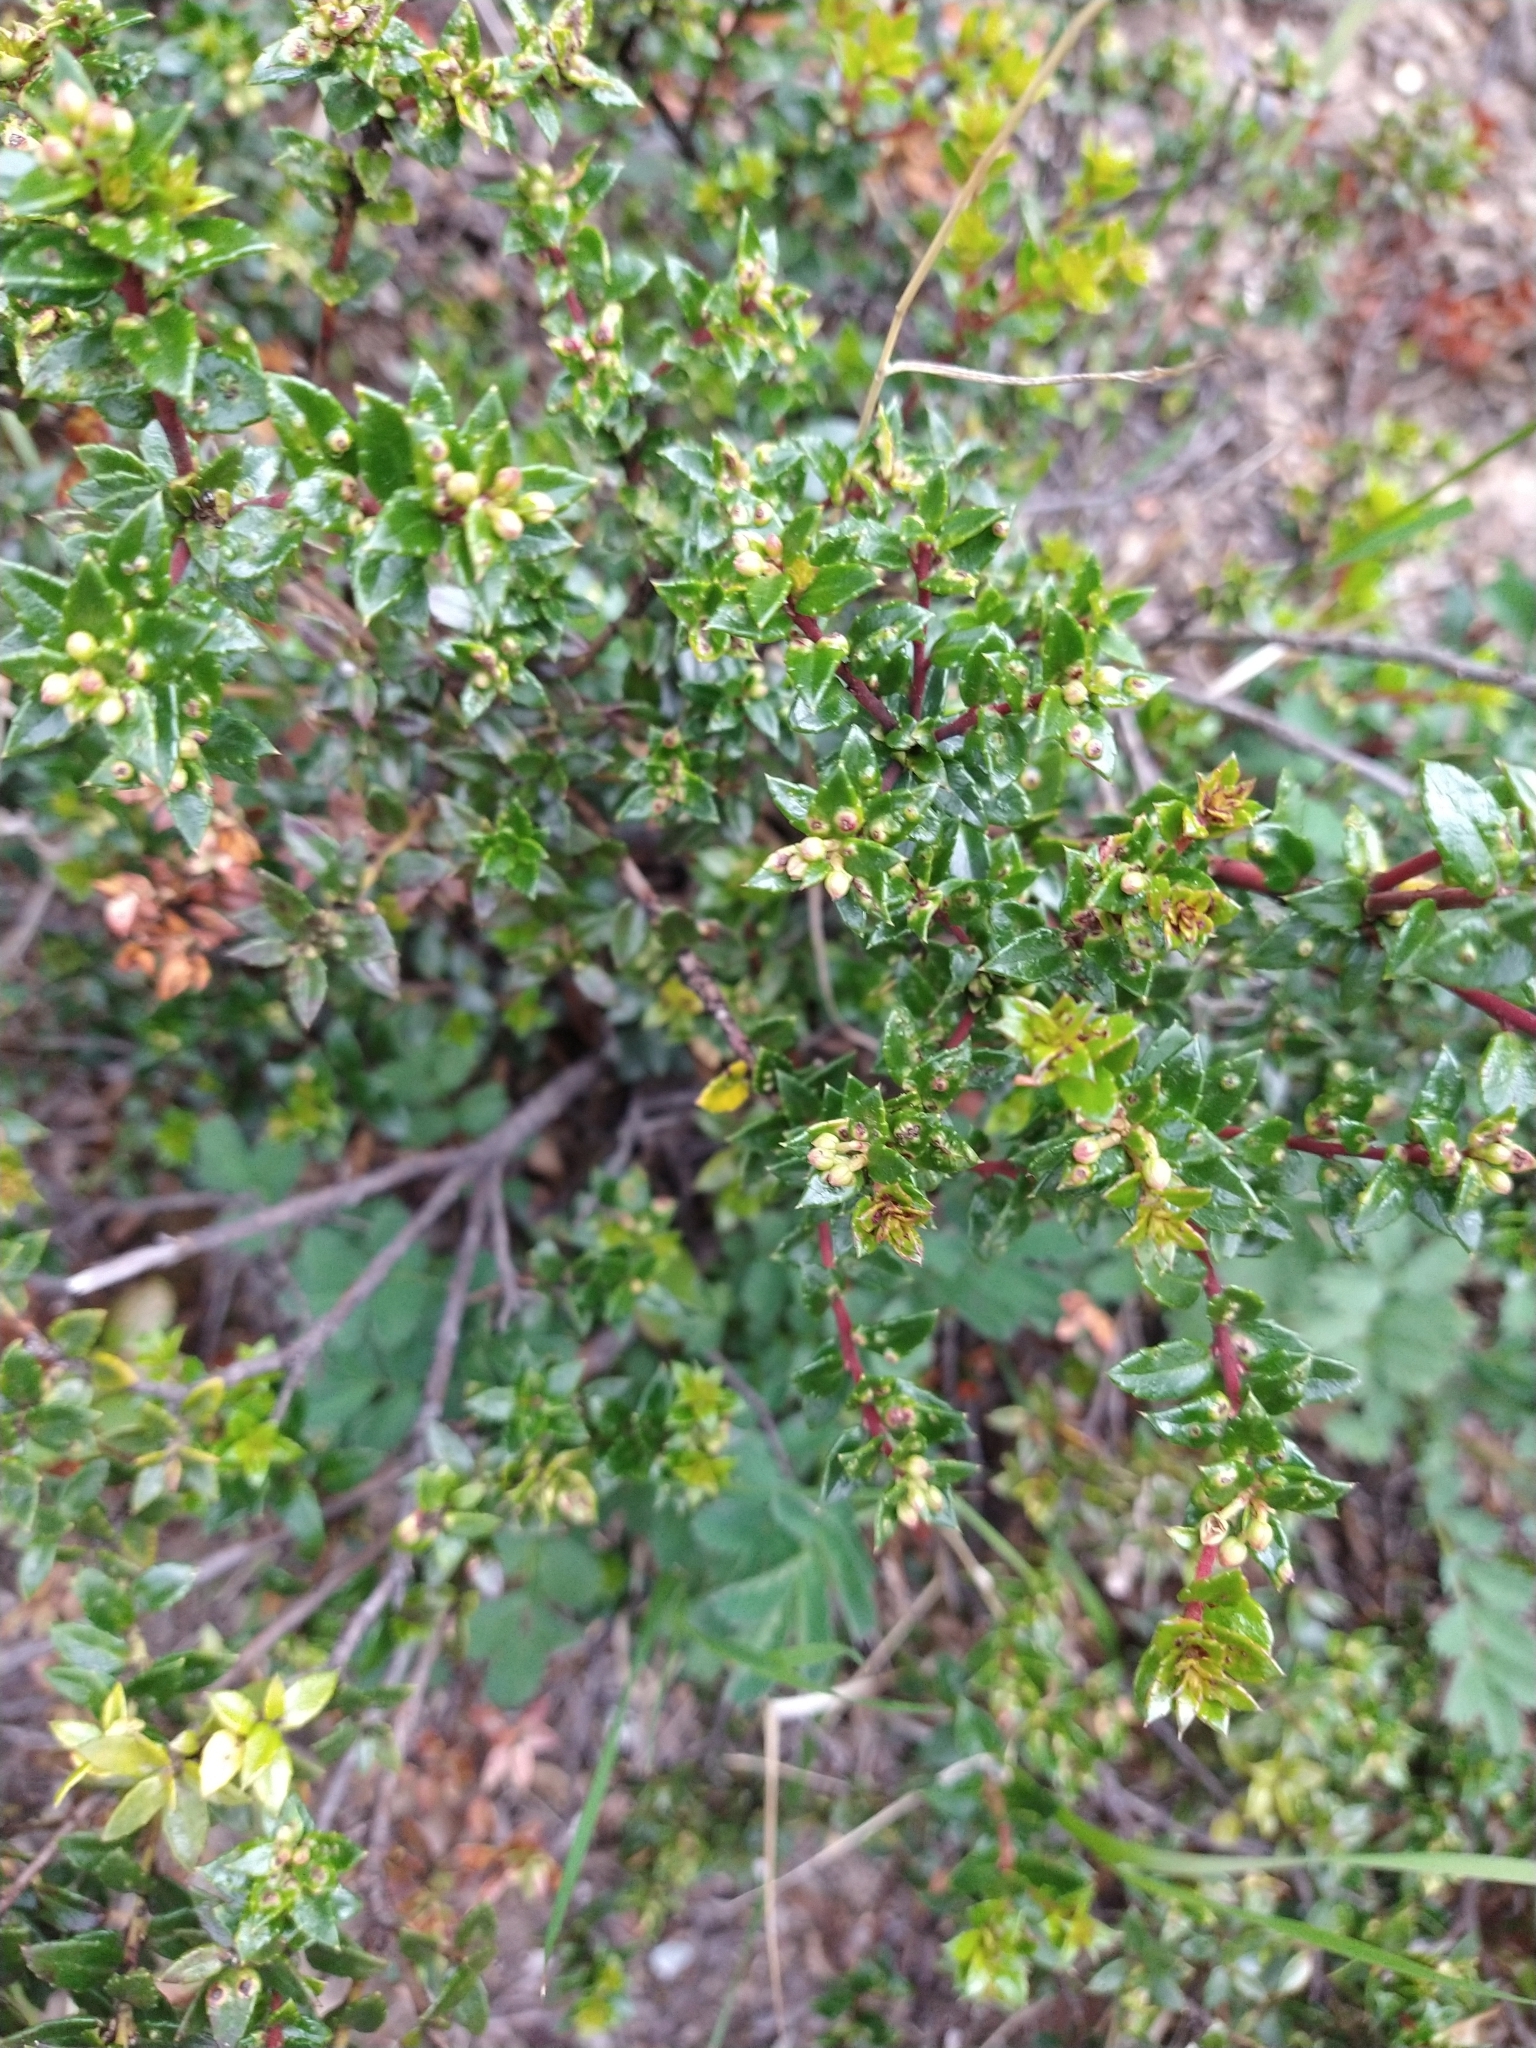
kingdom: Plantae
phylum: Tracheophyta
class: Magnoliopsida
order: Ericales
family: Ericaceae
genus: Gaultheria
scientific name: Gaultheria mucronata
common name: Prickly heath
